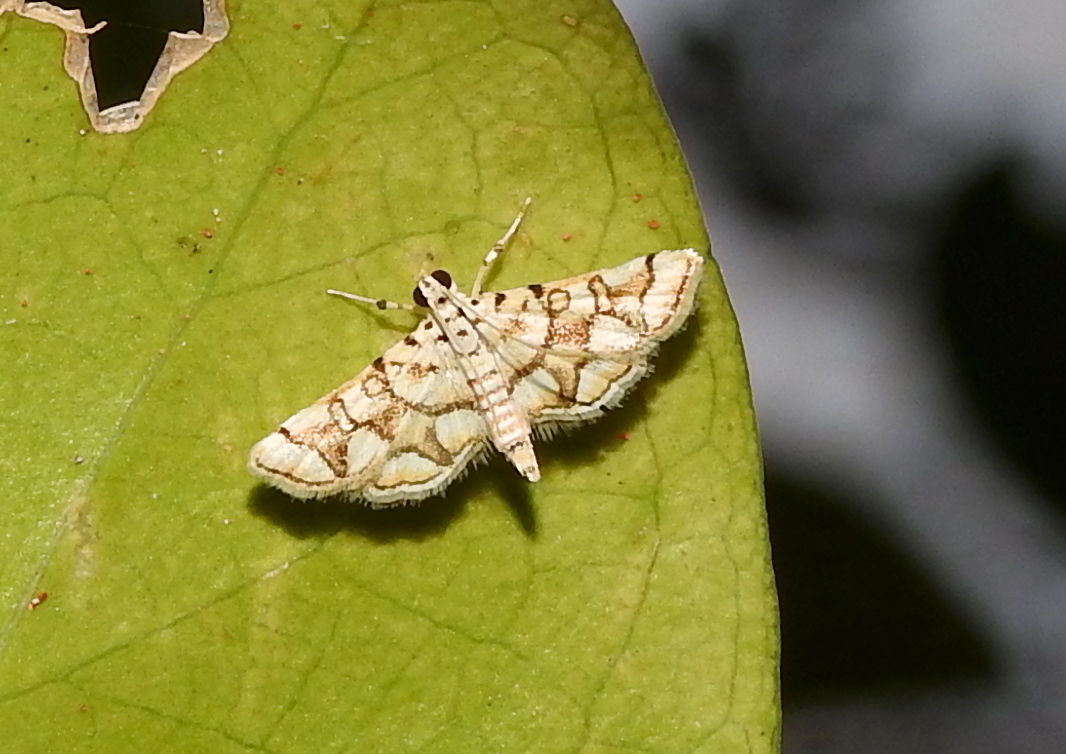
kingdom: Animalia
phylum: Arthropoda
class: Insecta
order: Lepidoptera
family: Crambidae
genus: Elophila
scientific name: Elophila
